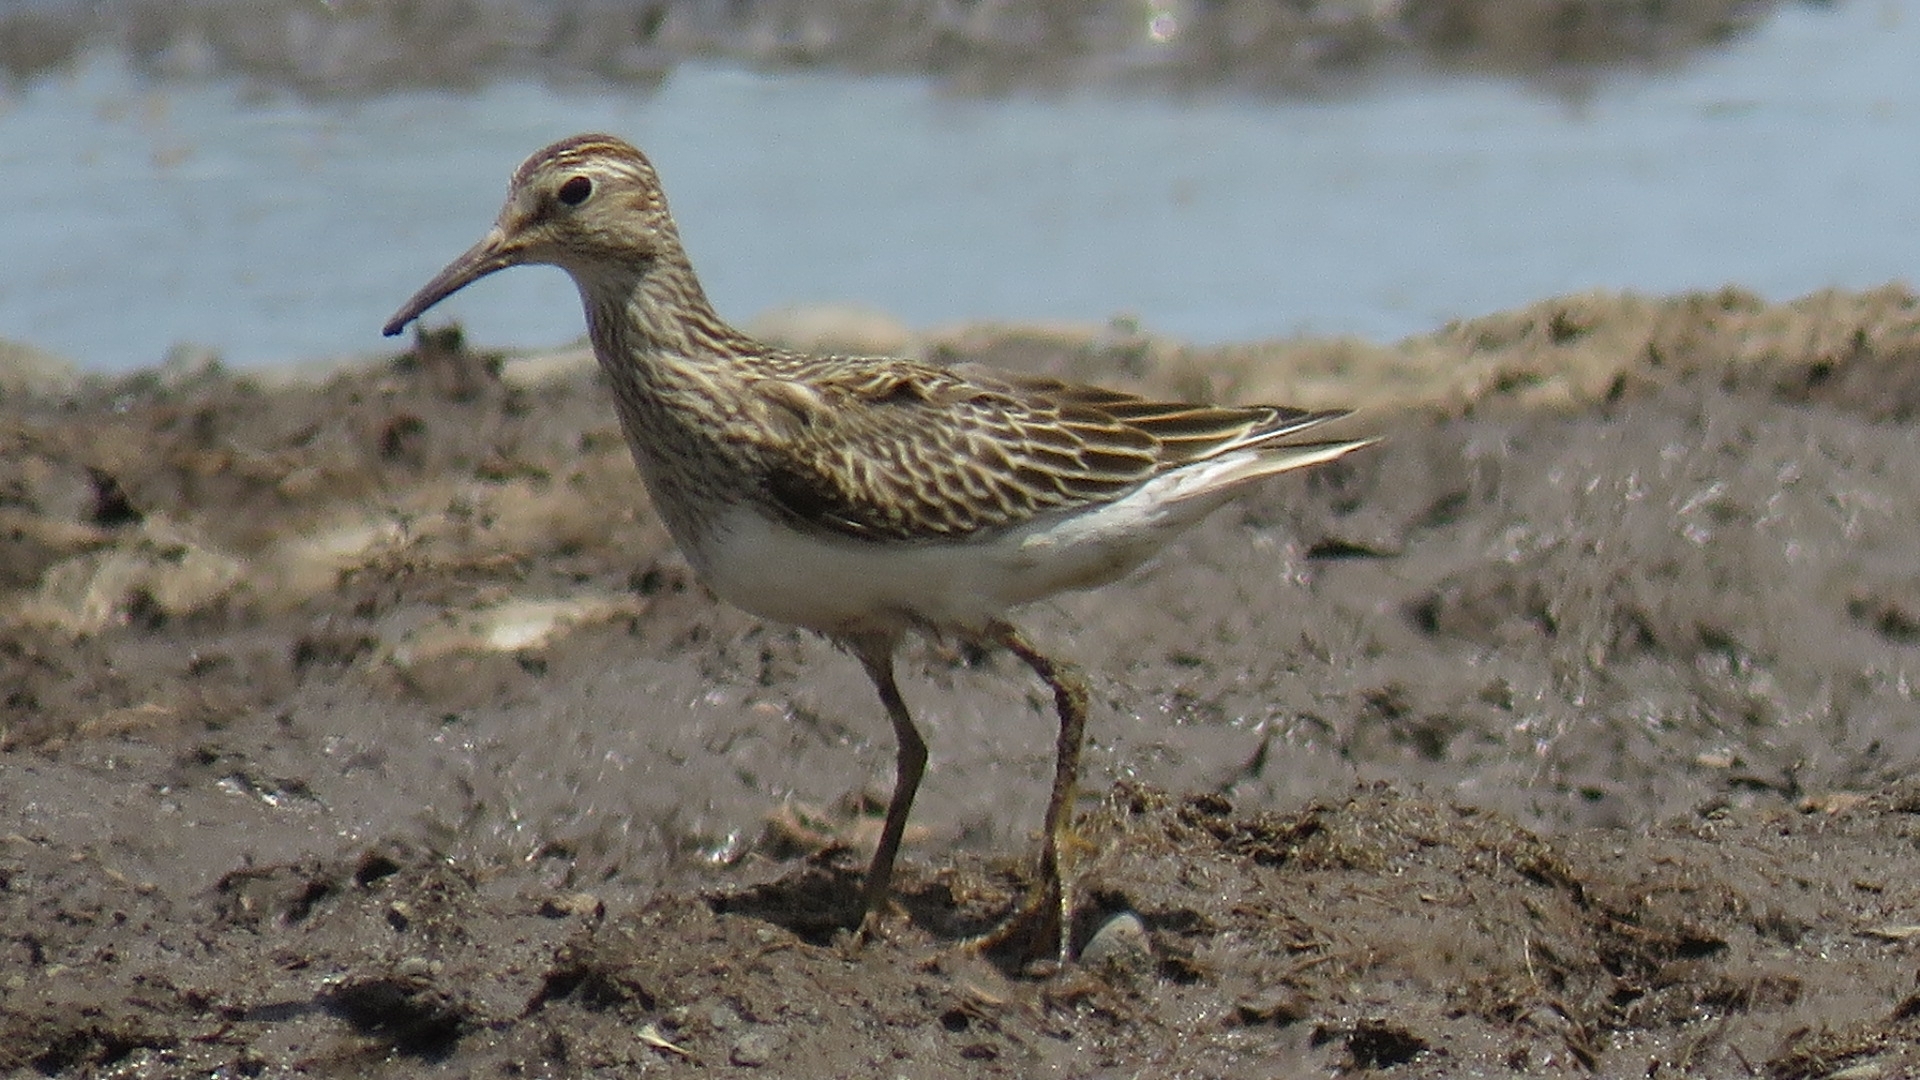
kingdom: Animalia
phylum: Chordata
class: Aves
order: Charadriiformes
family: Scolopacidae
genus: Calidris
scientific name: Calidris melanotos
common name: Pectoral sandpiper
